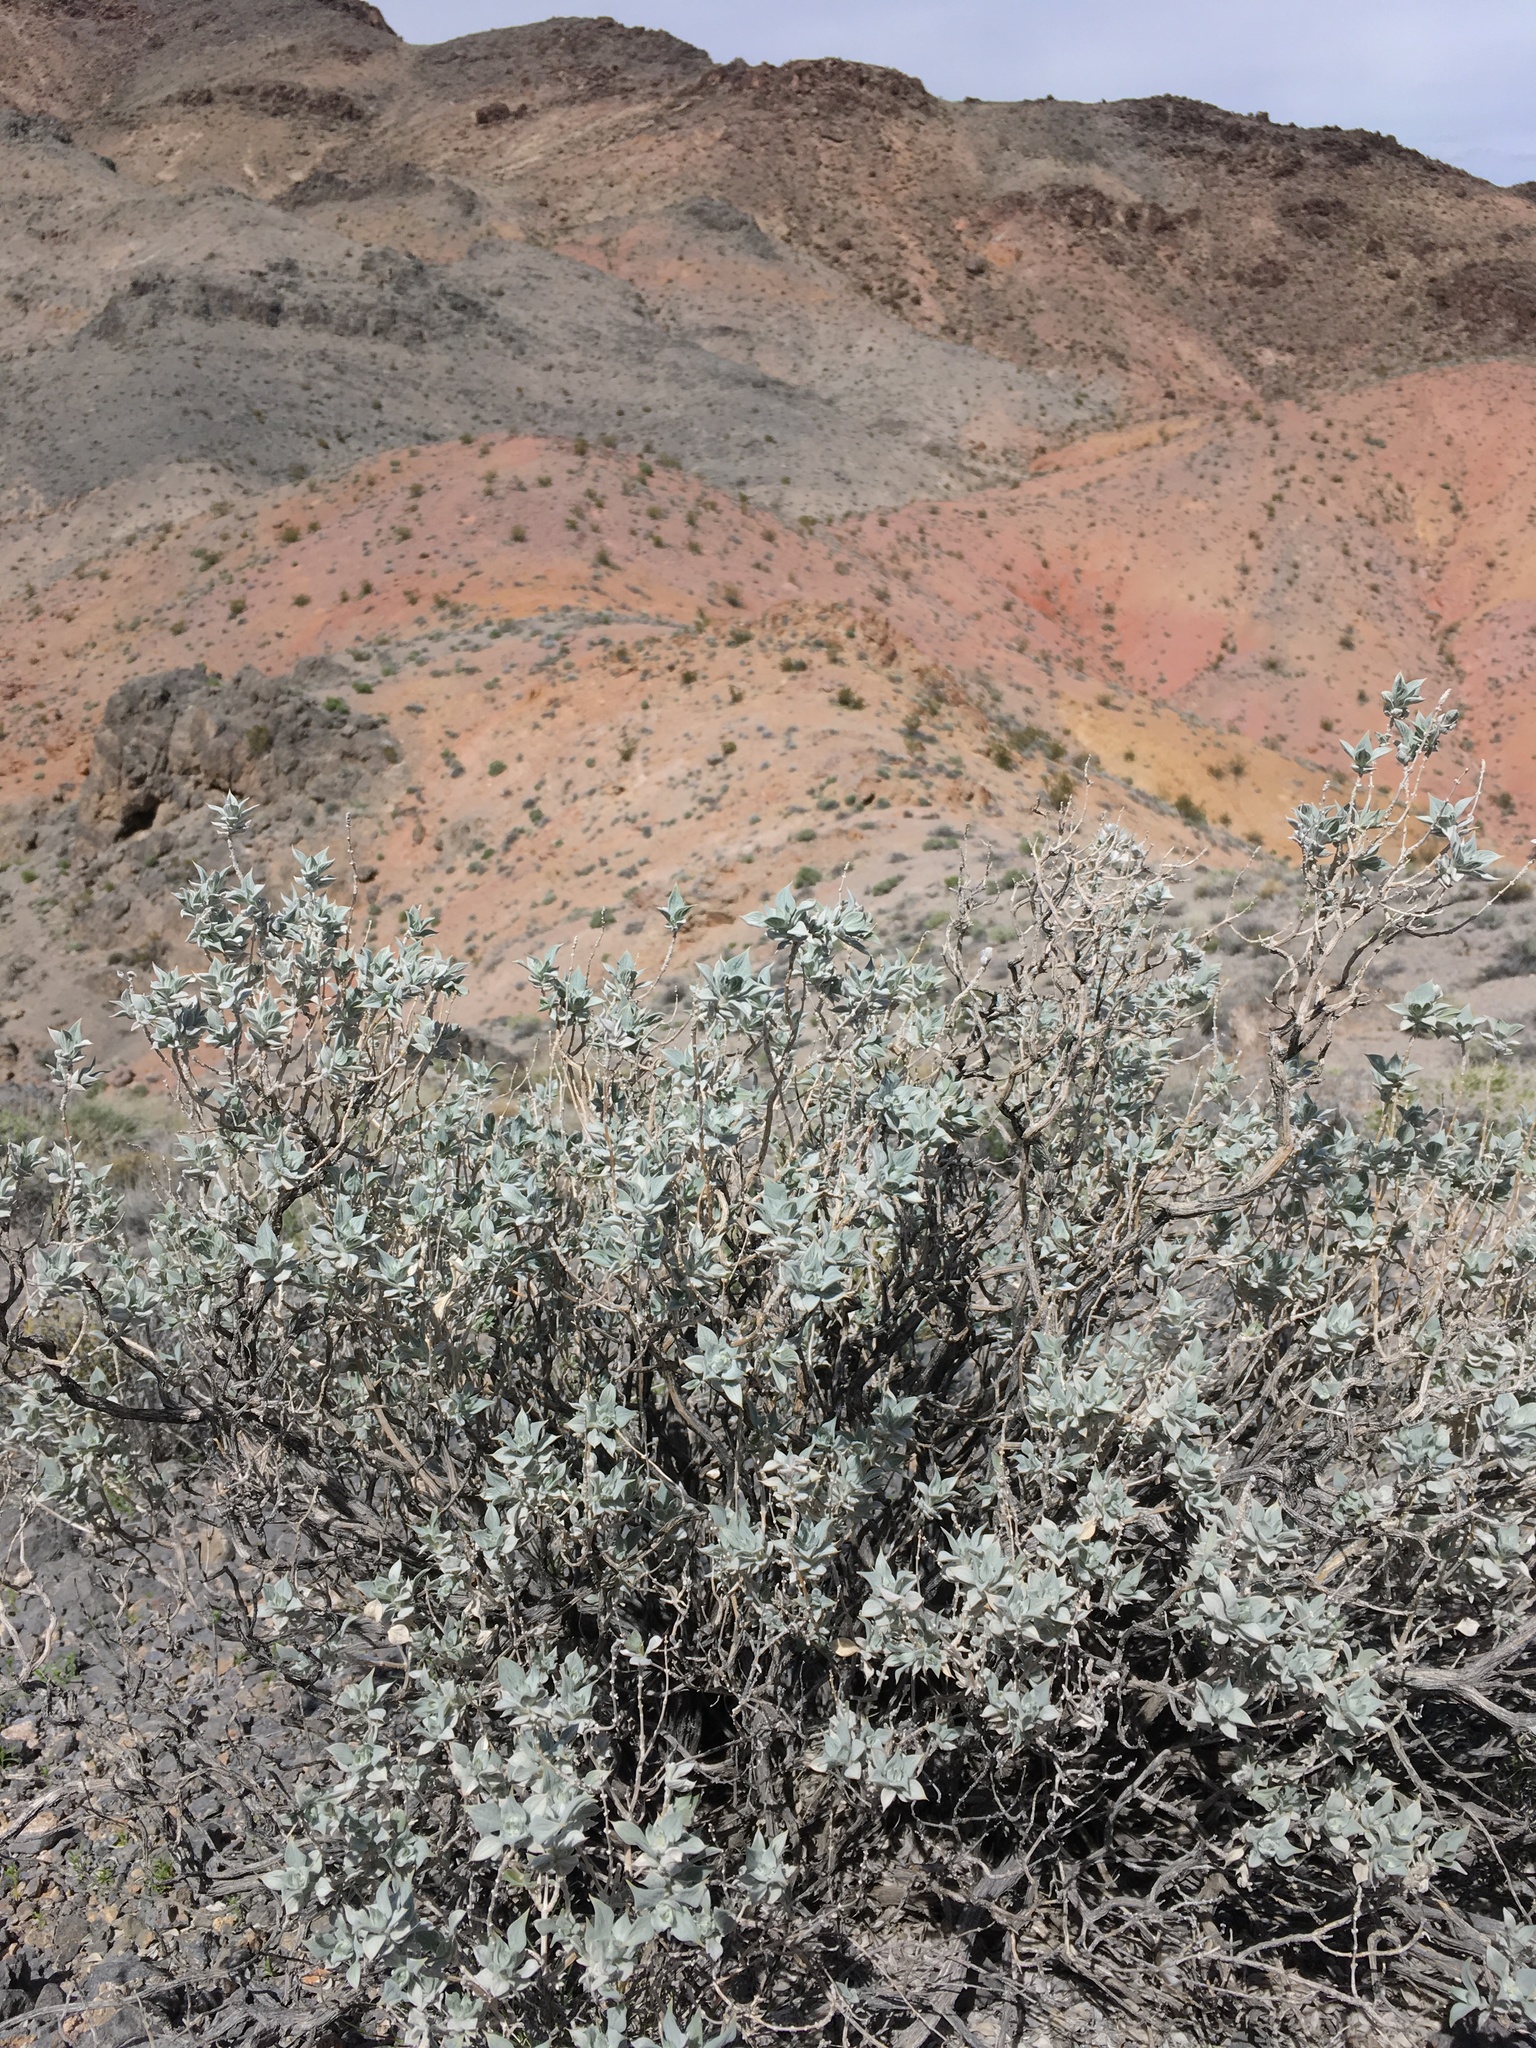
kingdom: Plantae
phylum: Tracheophyta
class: Magnoliopsida
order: Lamiales
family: Lamiaceae
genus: Salvia
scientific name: Salvia funerea
